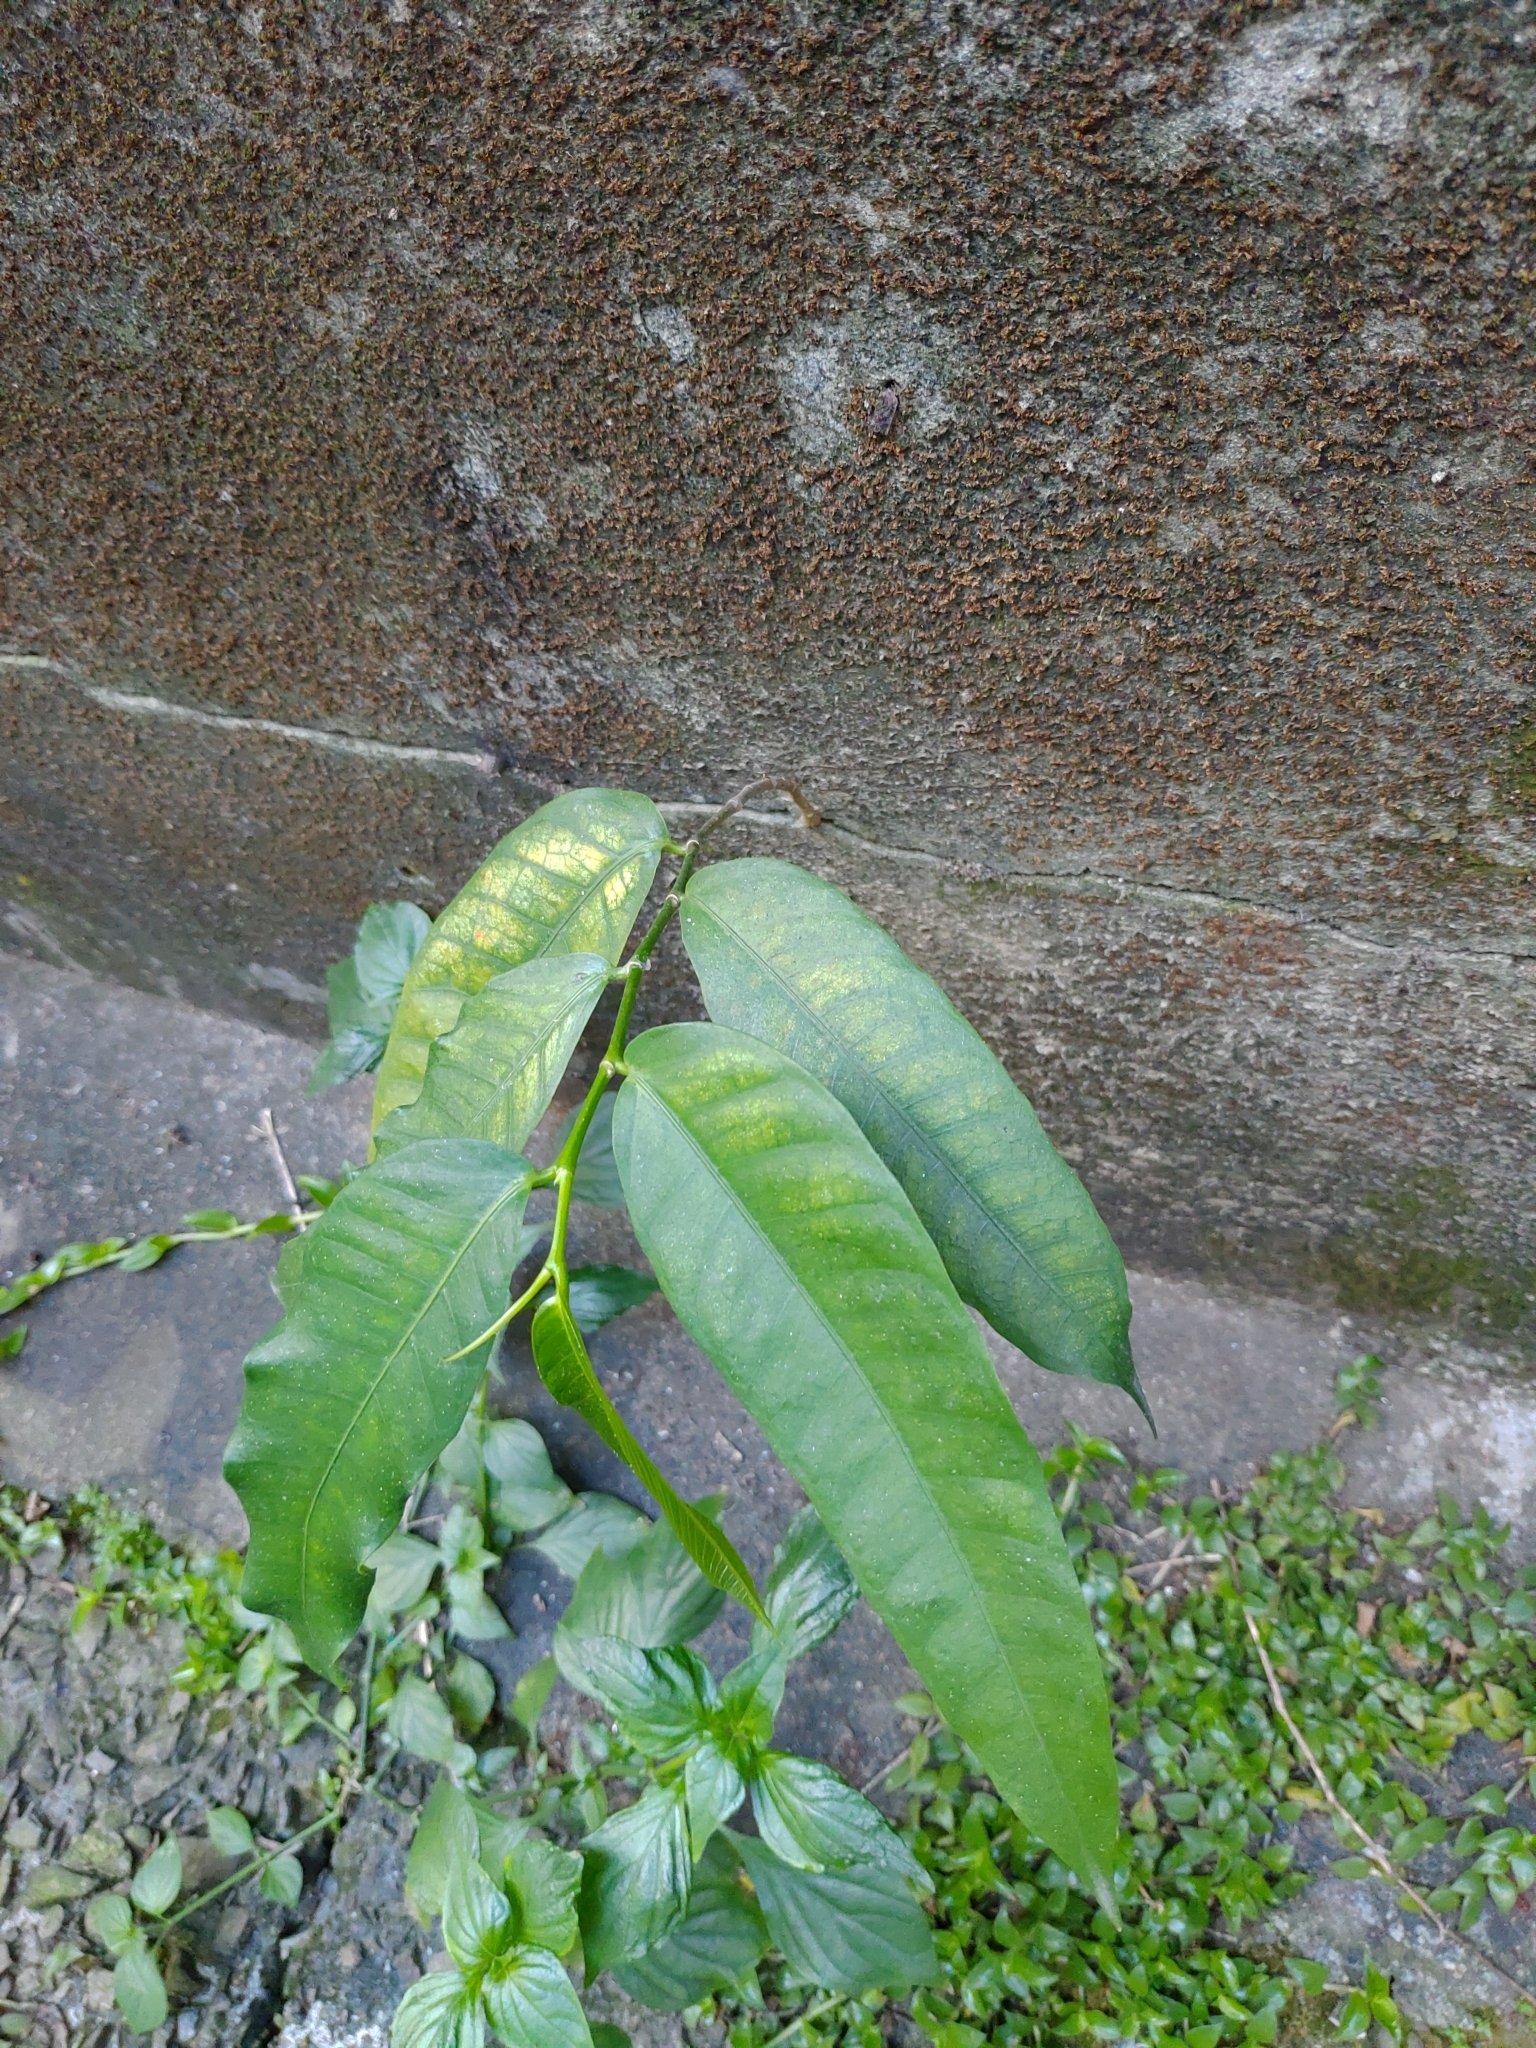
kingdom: Plantae
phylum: Tracheophyta
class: Magnoliopsida
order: Rosales
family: Moraceae
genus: Ficus
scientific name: Ficus virgata
